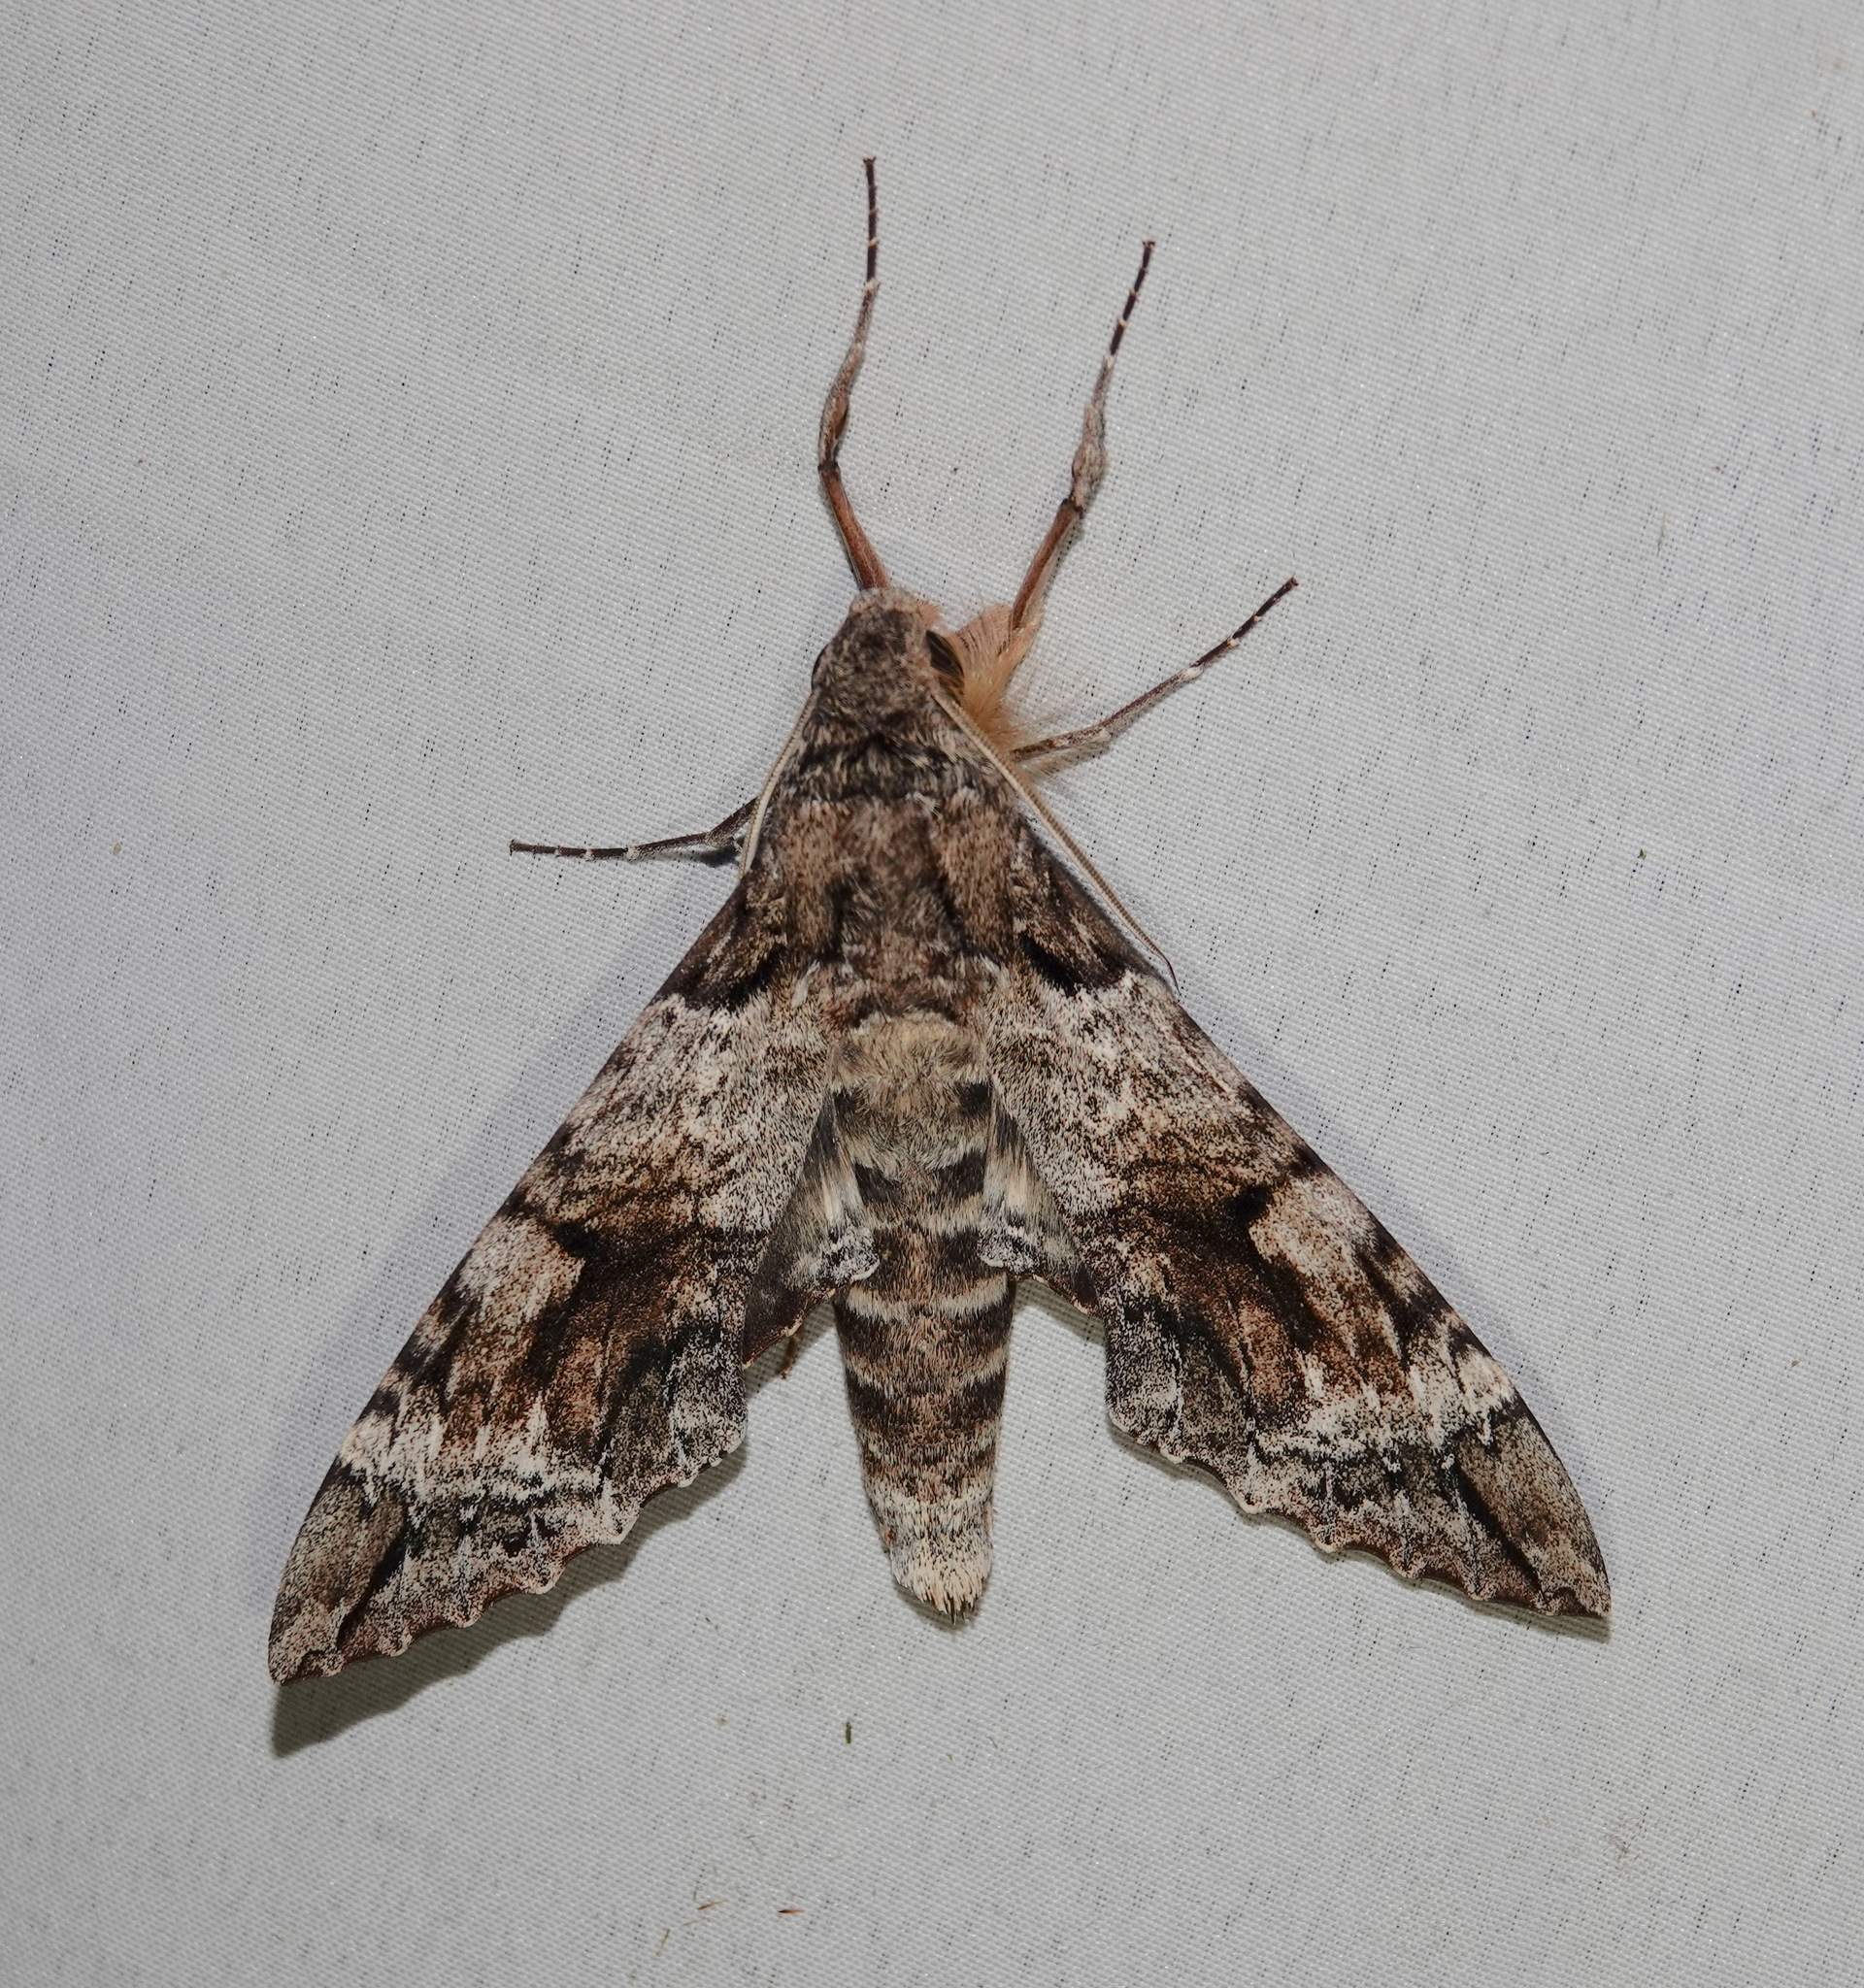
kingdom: Animalia
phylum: Arthropoda
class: Insecta
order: Lepidoptera
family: Sphingidae
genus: Pseudosphinx
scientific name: Pseudosphinx tetrio
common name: Tetrio sphinx
